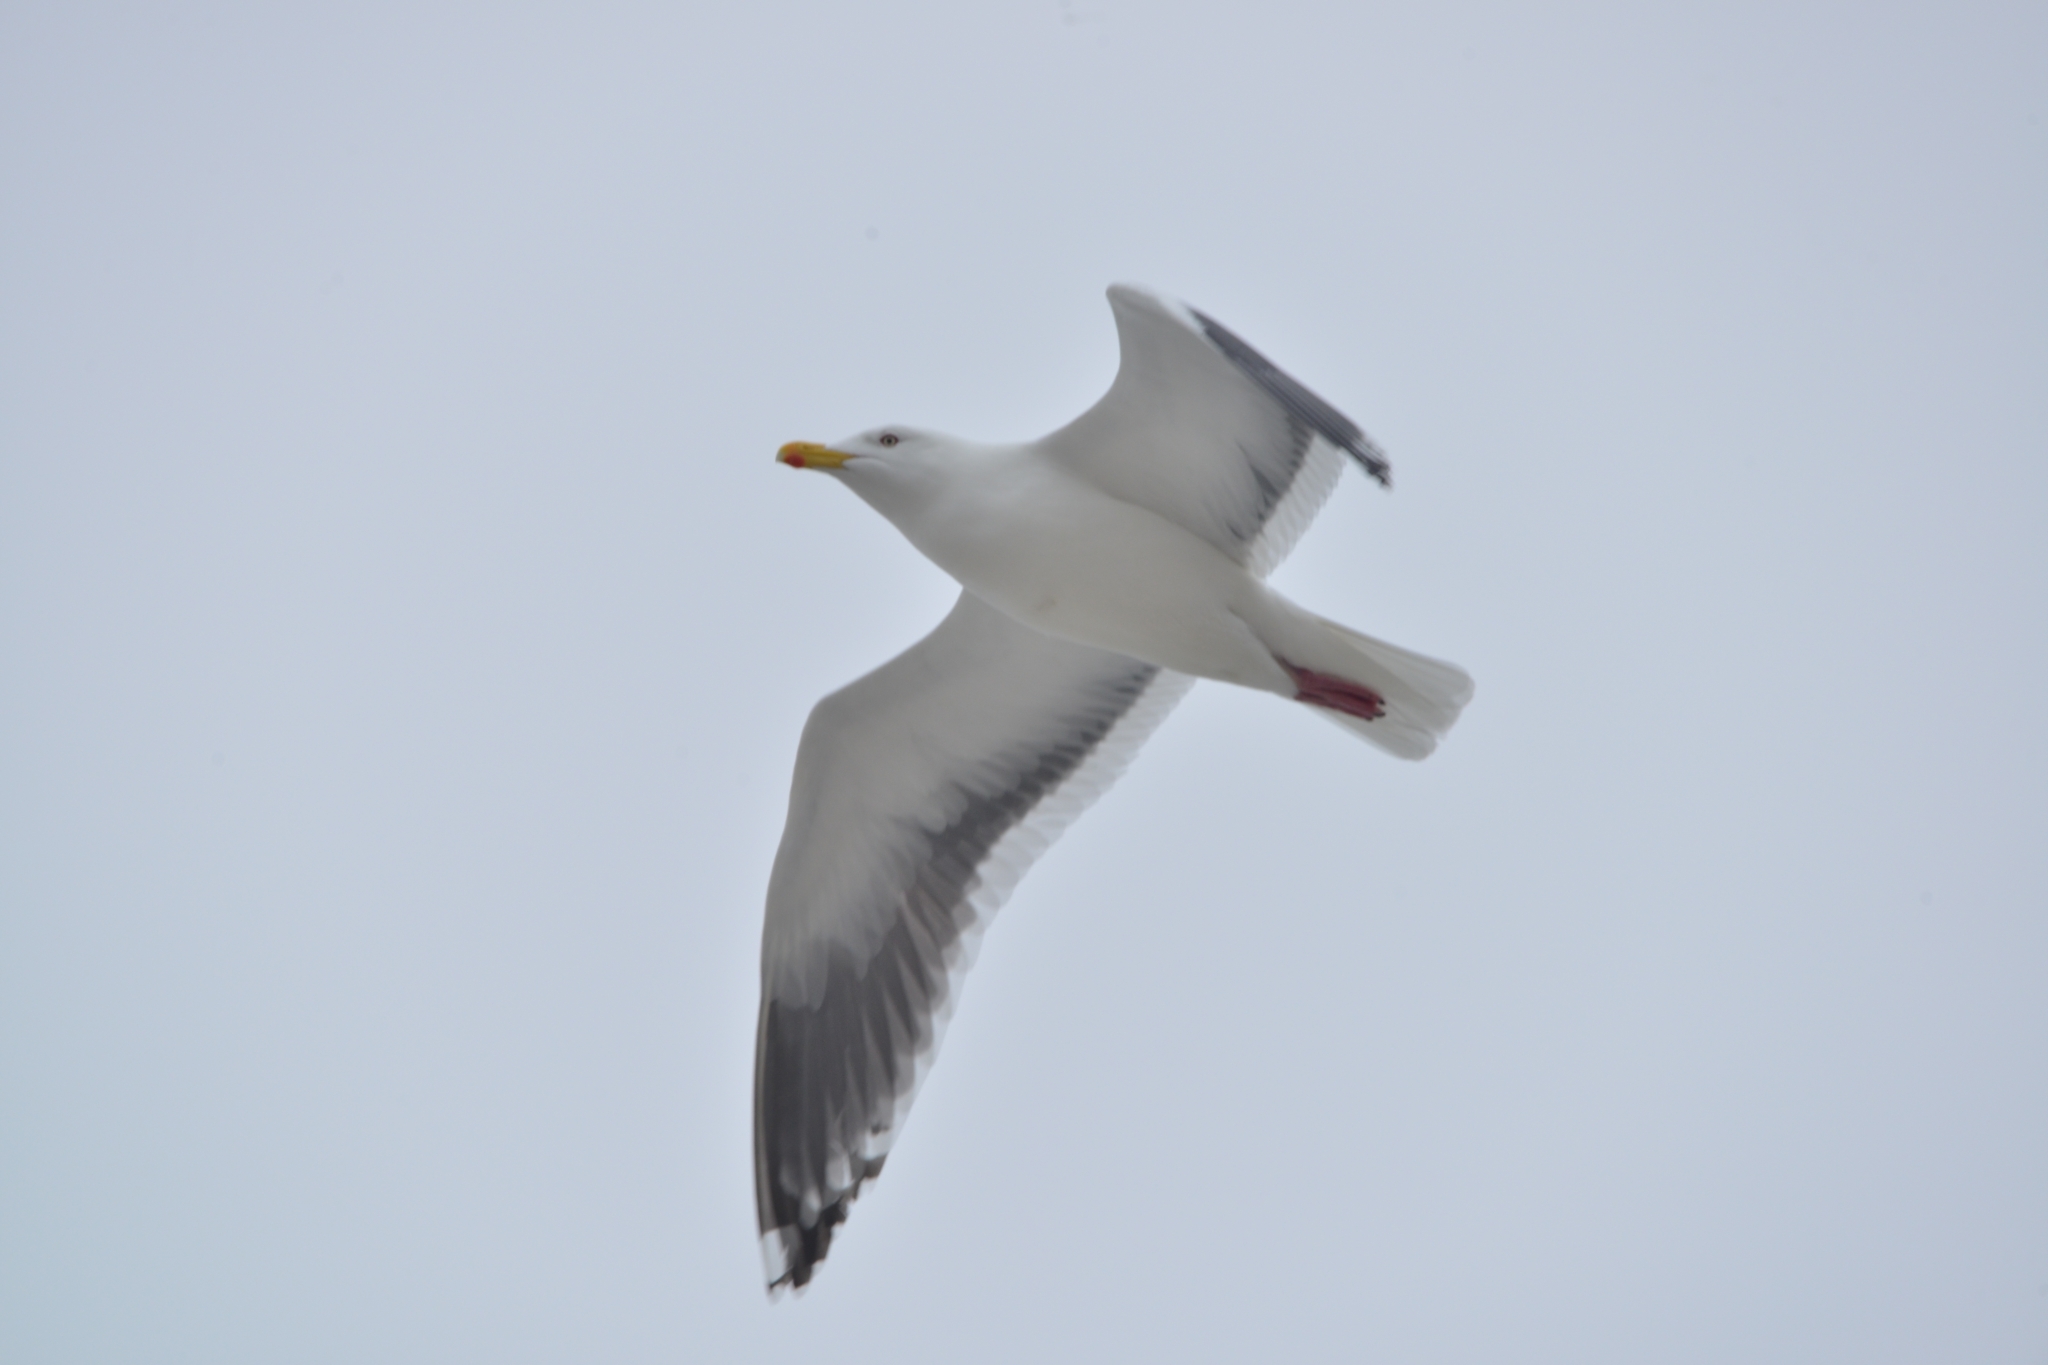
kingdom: Animalia
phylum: Chordata
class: Aves
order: Charadriiformes
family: Laridae
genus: Larus
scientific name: Larus schistisagus
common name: Slaty-backed gull
